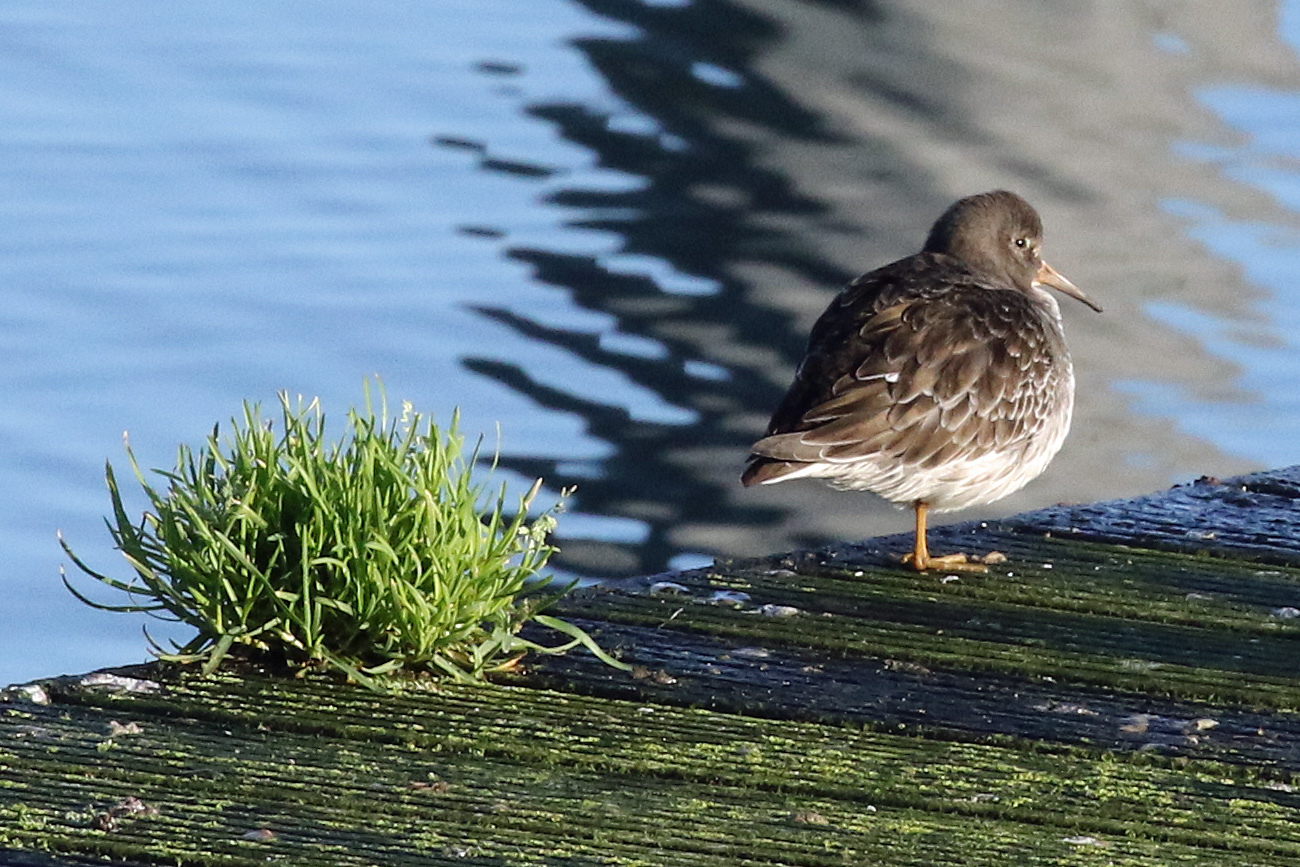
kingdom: Animalia
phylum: Chordata
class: Aves
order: Charadriiformes
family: Scolopacidae
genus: Calidris
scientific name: Calidris maritima
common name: Purple sandpiper
